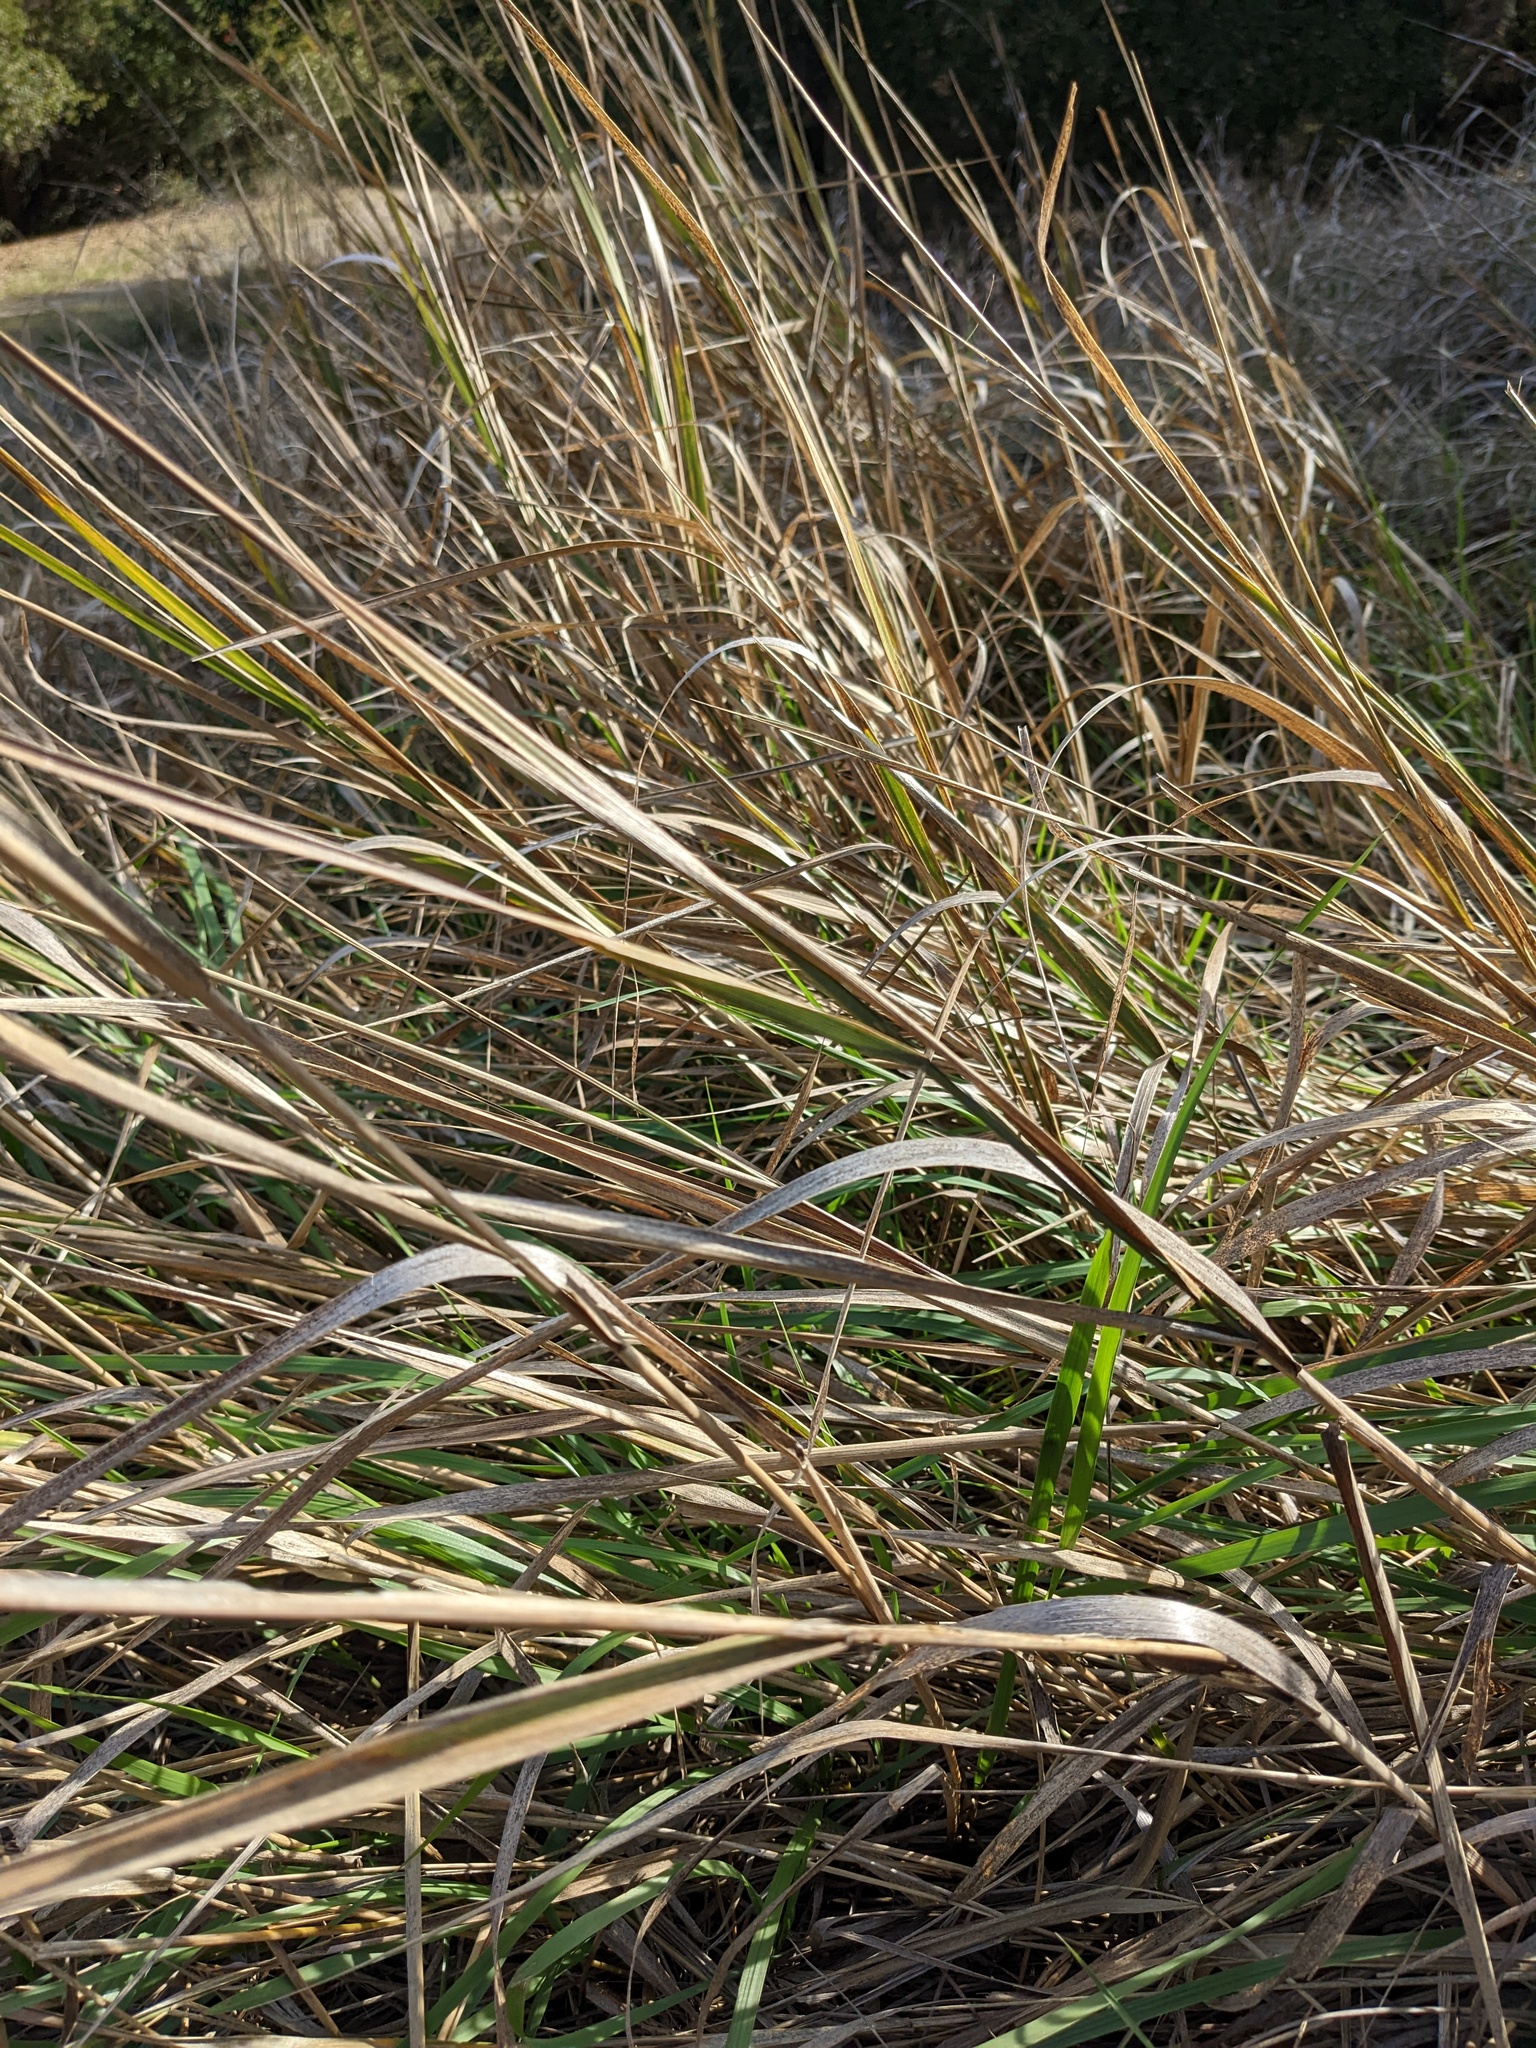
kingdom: Plantae
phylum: Tracheophyta
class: Liliopsida
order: Poales
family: Poaceae
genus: Leymus
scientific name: Leymus condensatus
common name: Giant wild rye
